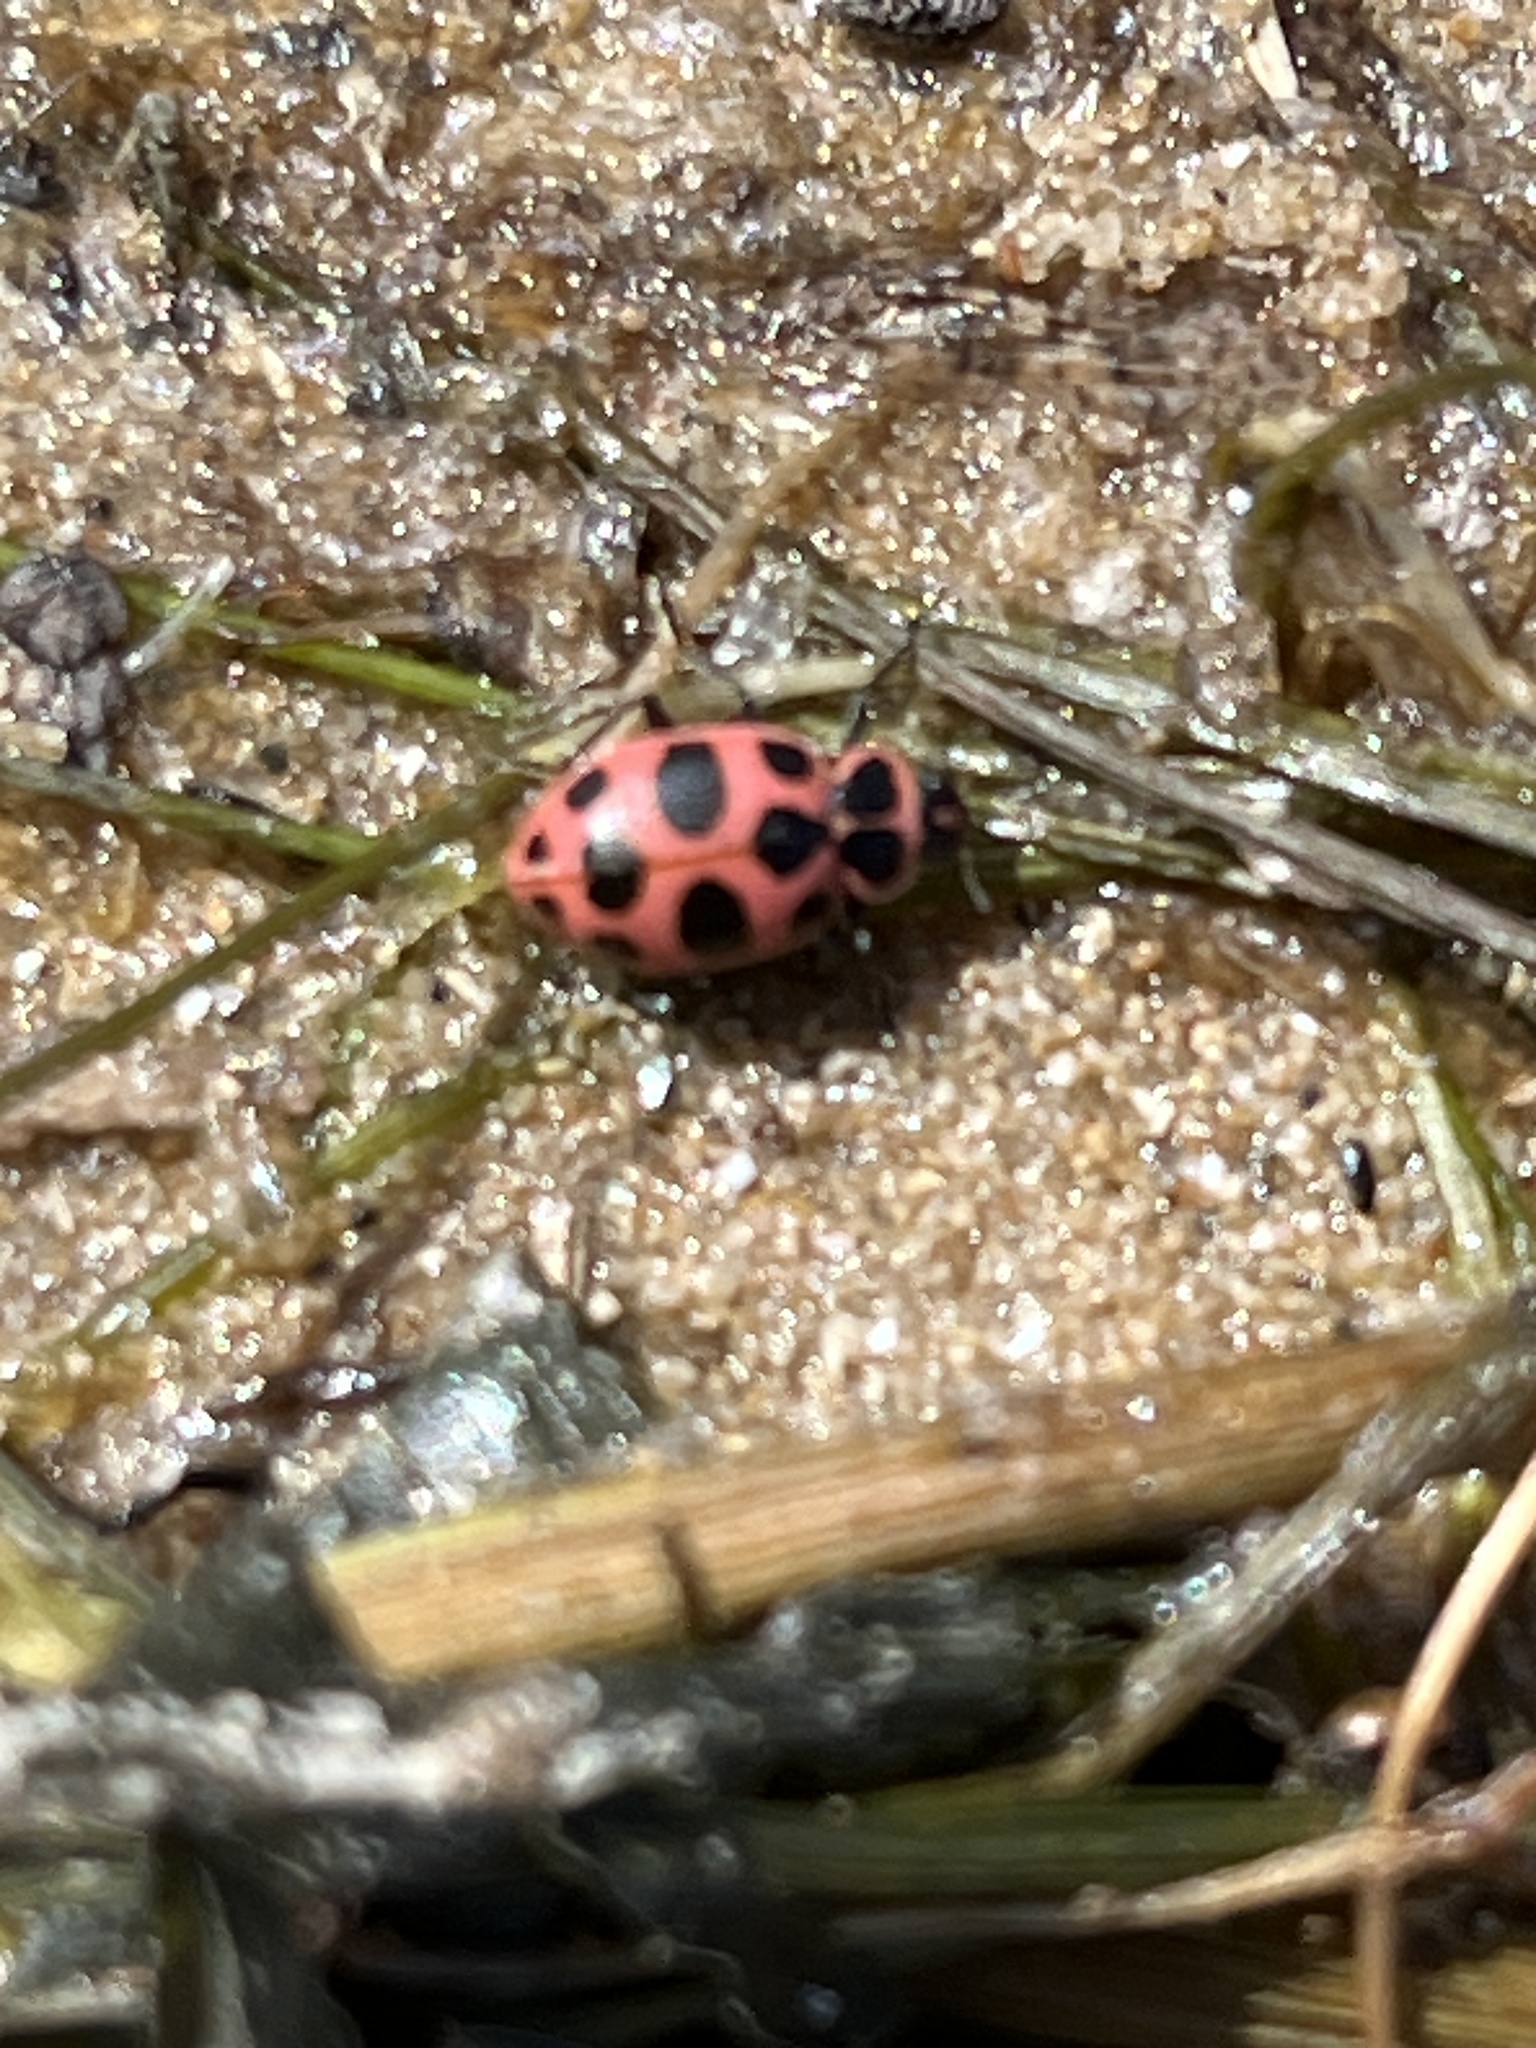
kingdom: Animalia
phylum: Arthropoda
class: Insecta
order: Coleoptera
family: Coccinellidae
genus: Coleomegilla
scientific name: Coleomegilla maculata
